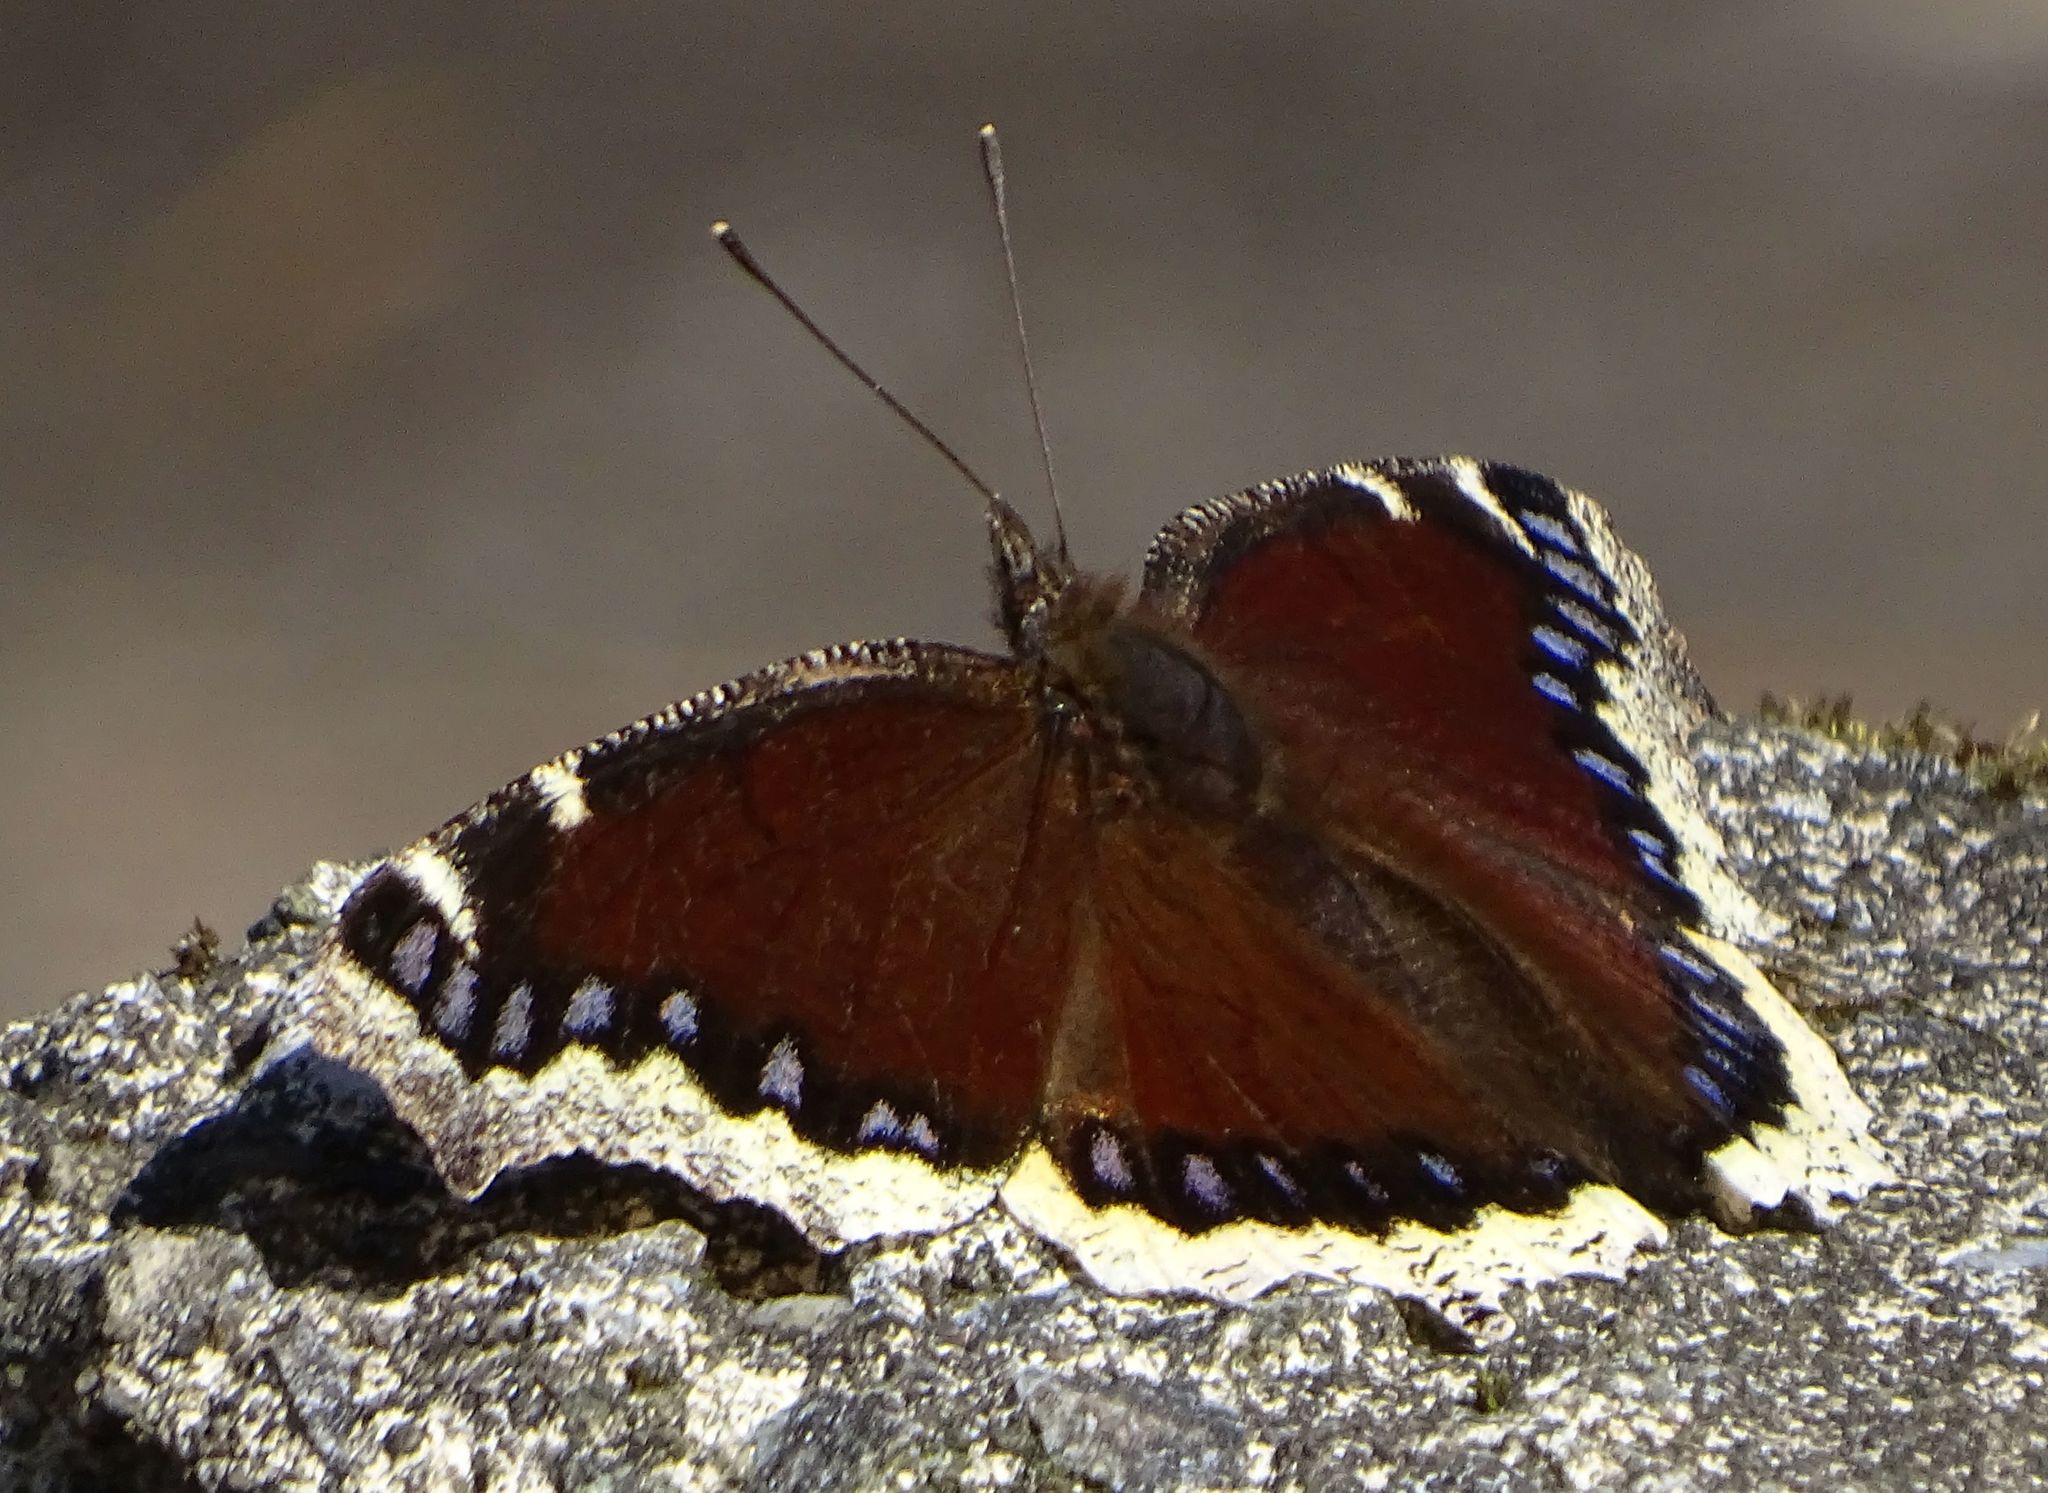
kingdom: Animalia
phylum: Arthropoda
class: Insecta
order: Lepidoptera
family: Nymphalidae
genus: Nymphalis
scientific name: Nymphalis antiopa
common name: Camberwell beauty
